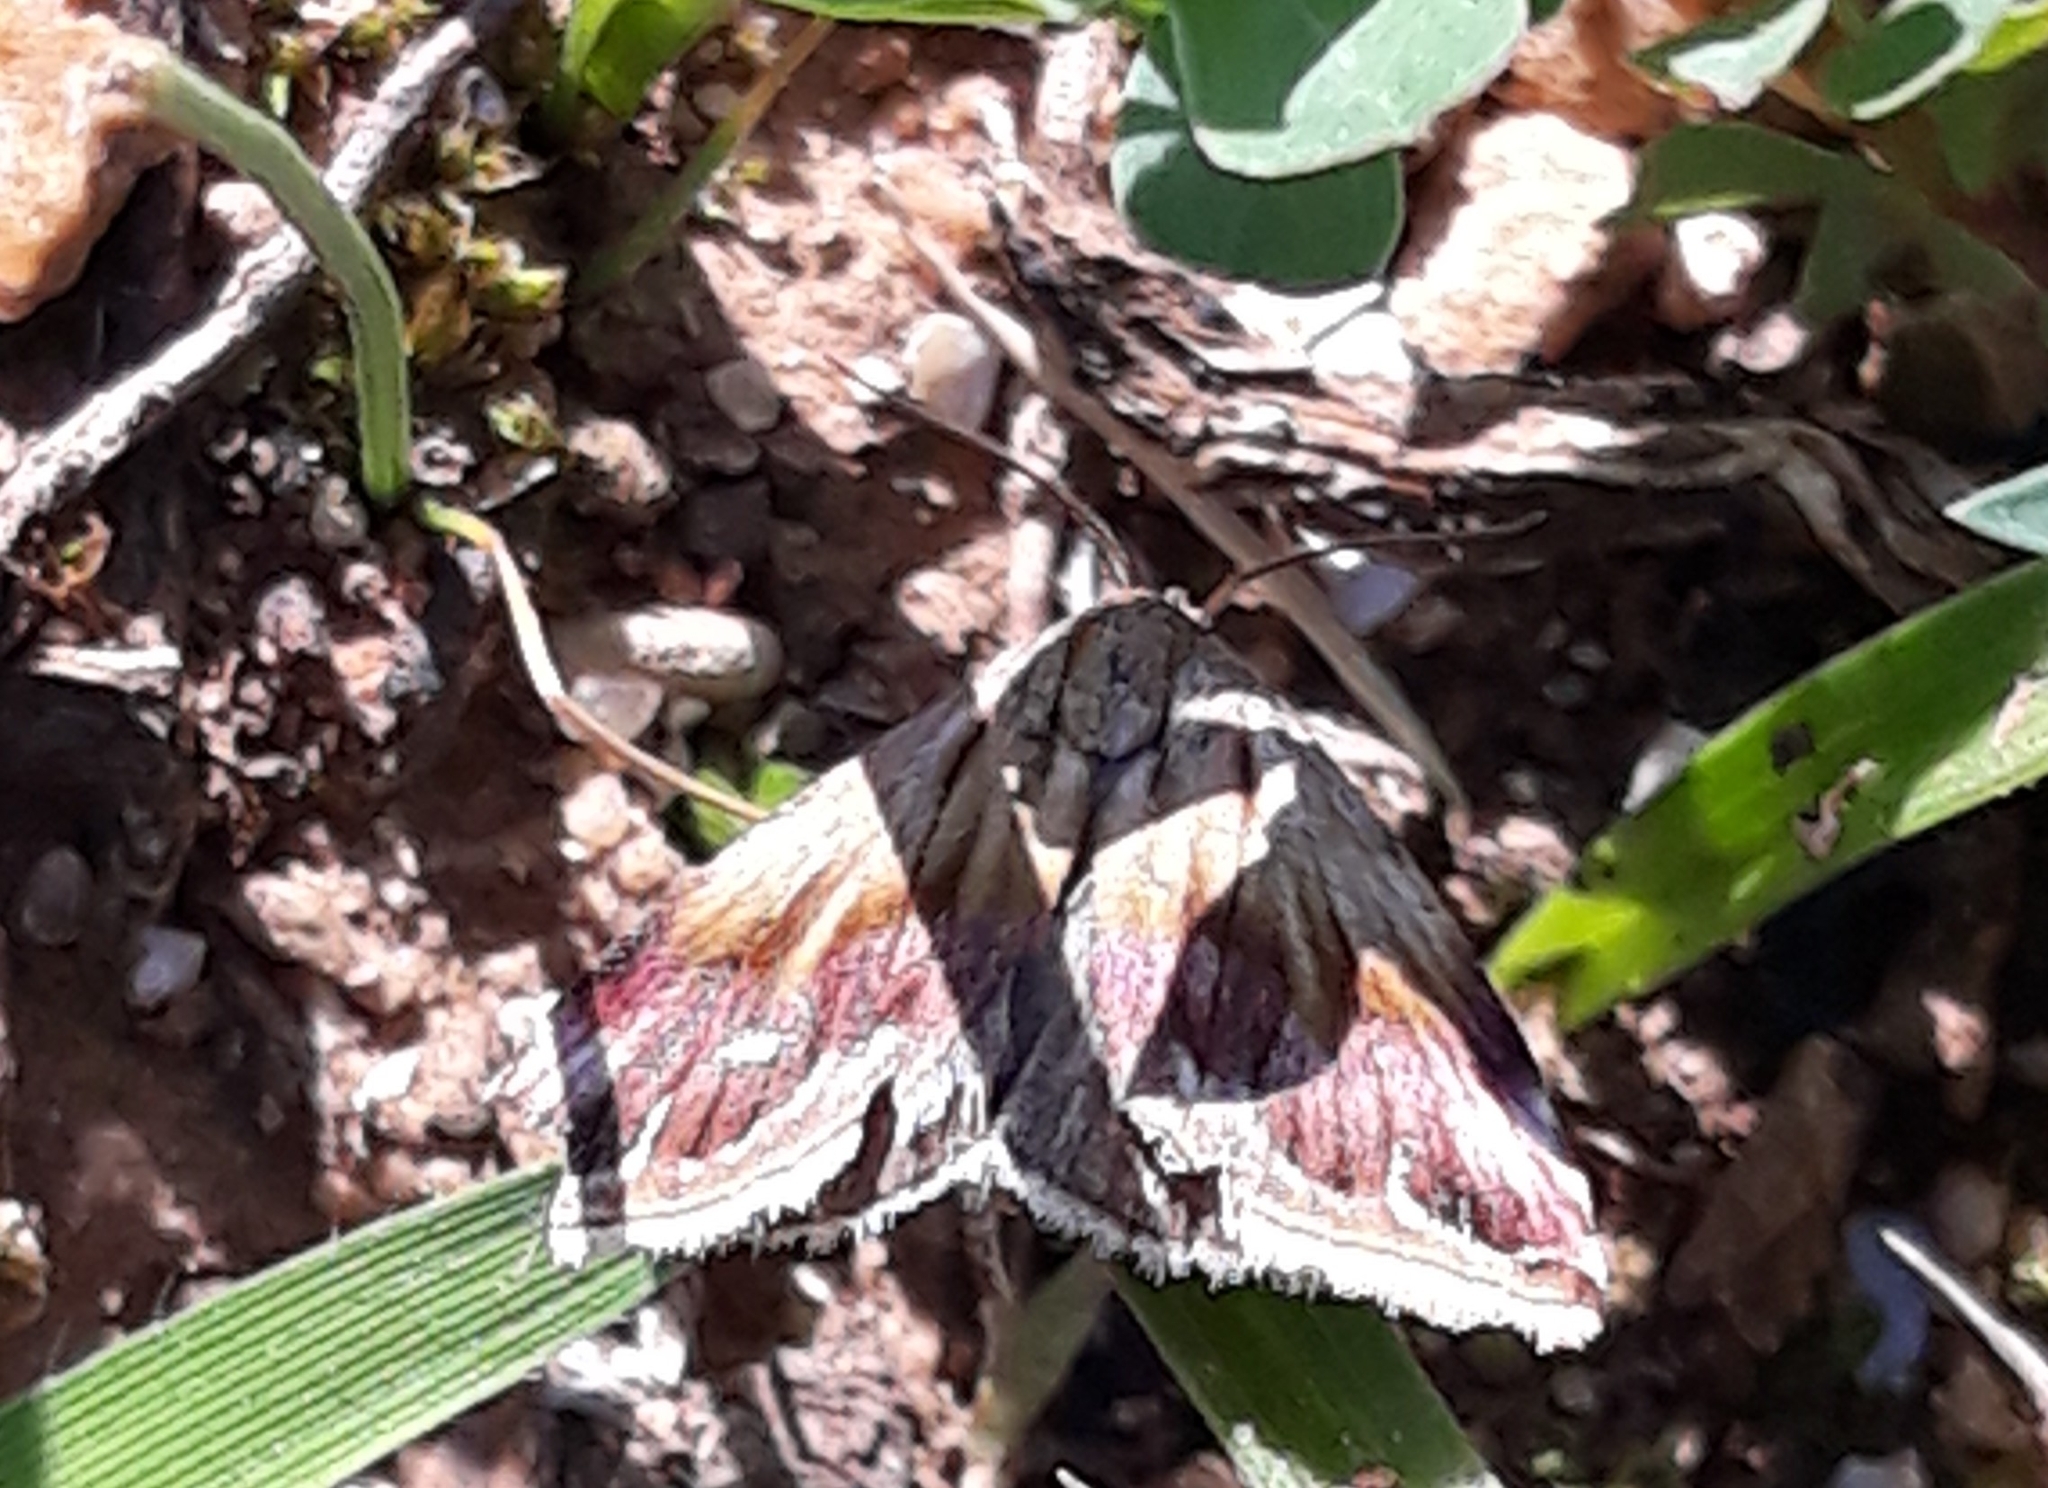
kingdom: Animalia
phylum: Arthropoda
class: Insecta
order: Lepidoptera
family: Noctuidae
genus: Eublemma
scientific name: Eublemma ostrina
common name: Purple marbled
